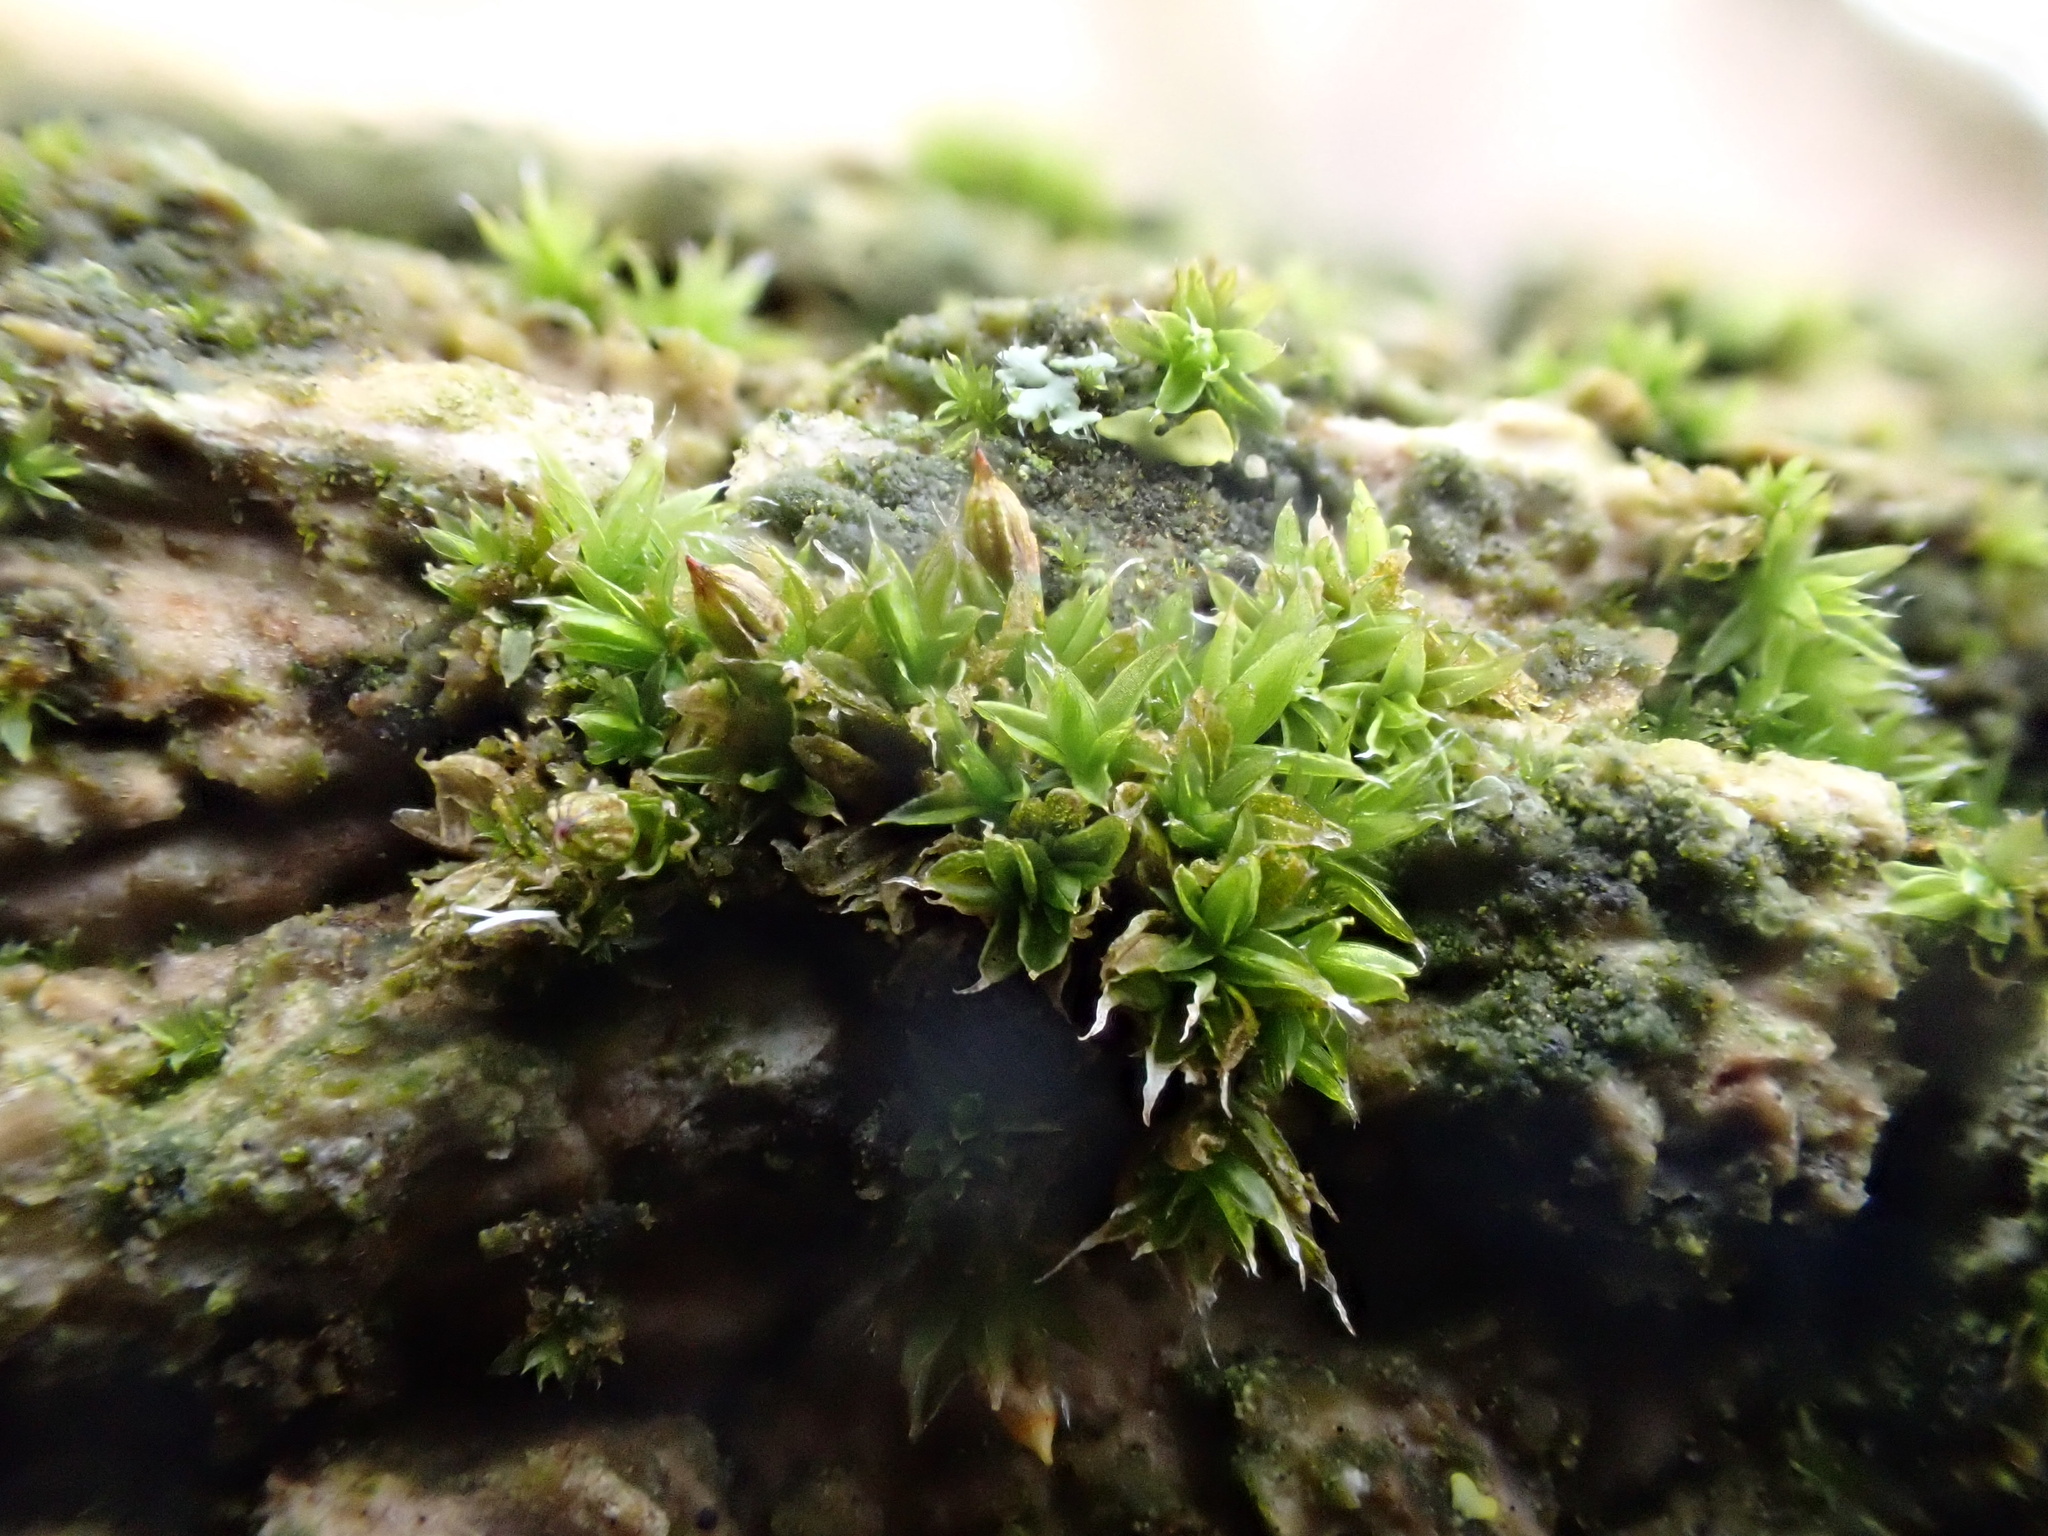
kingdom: Plantae
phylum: Bryophyta
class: Bryopsida
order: Orthotrichales
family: Orthotrichaceae
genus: Orthotrichum
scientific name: Orthotrichum diaphanum
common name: White-tipped bristle-moss
